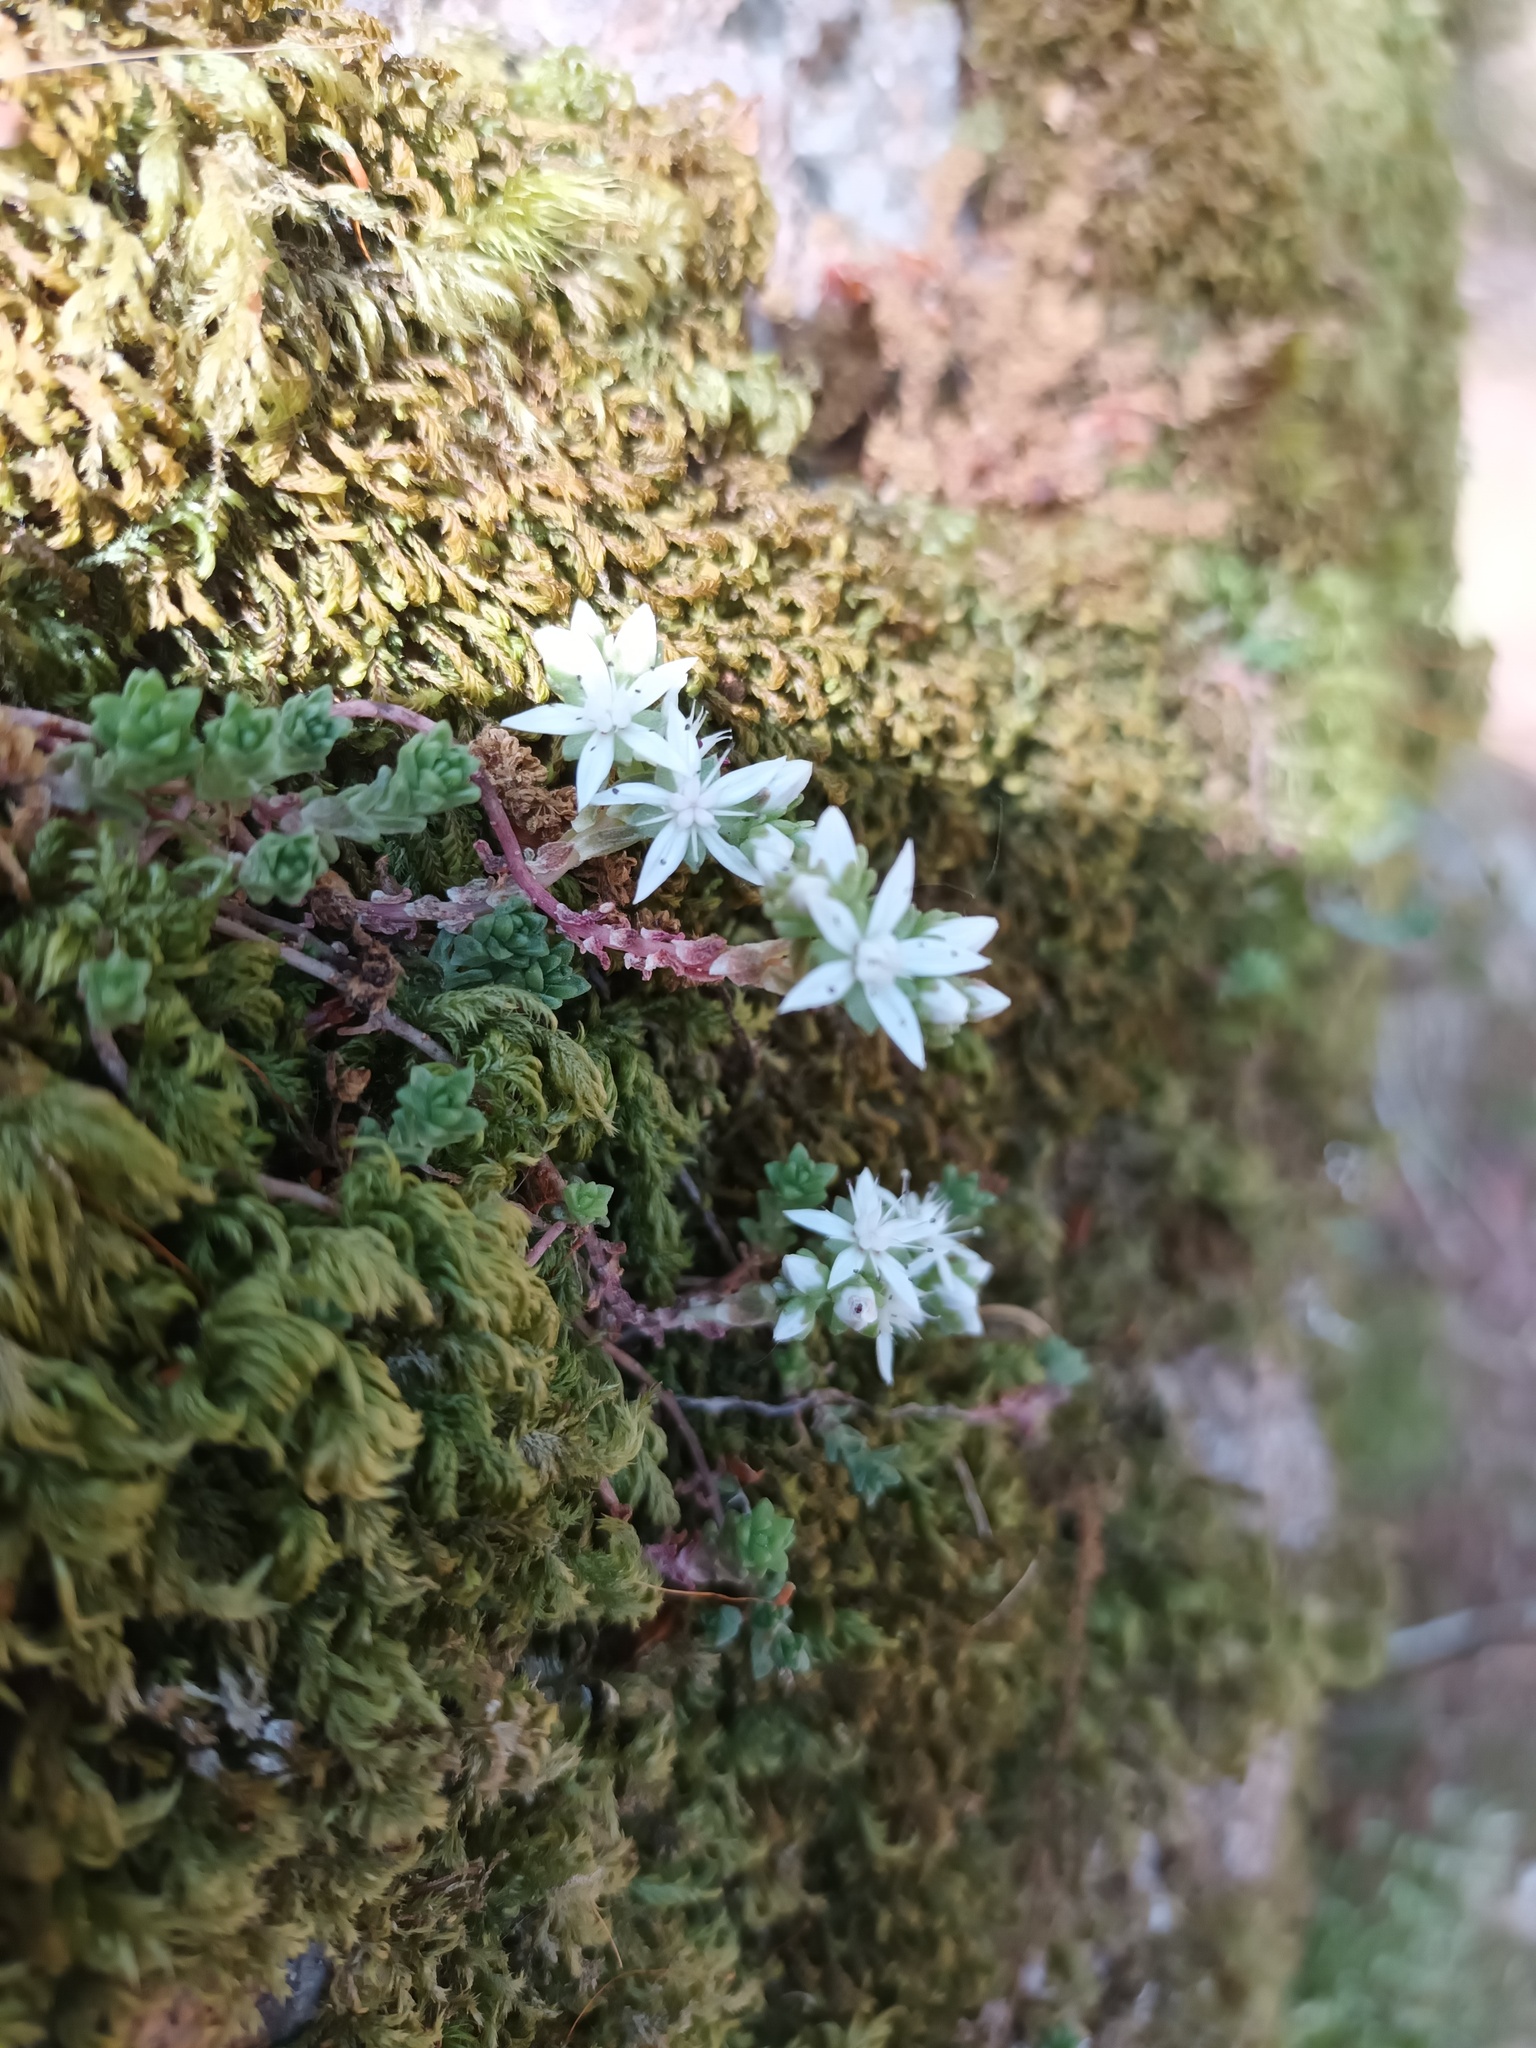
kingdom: Plantae
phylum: Tracheophyta
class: Magnoliopsida
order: Saxifragales
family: Crassulaceae
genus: Sedum
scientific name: Sedum anglicum
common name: English stonecrop
